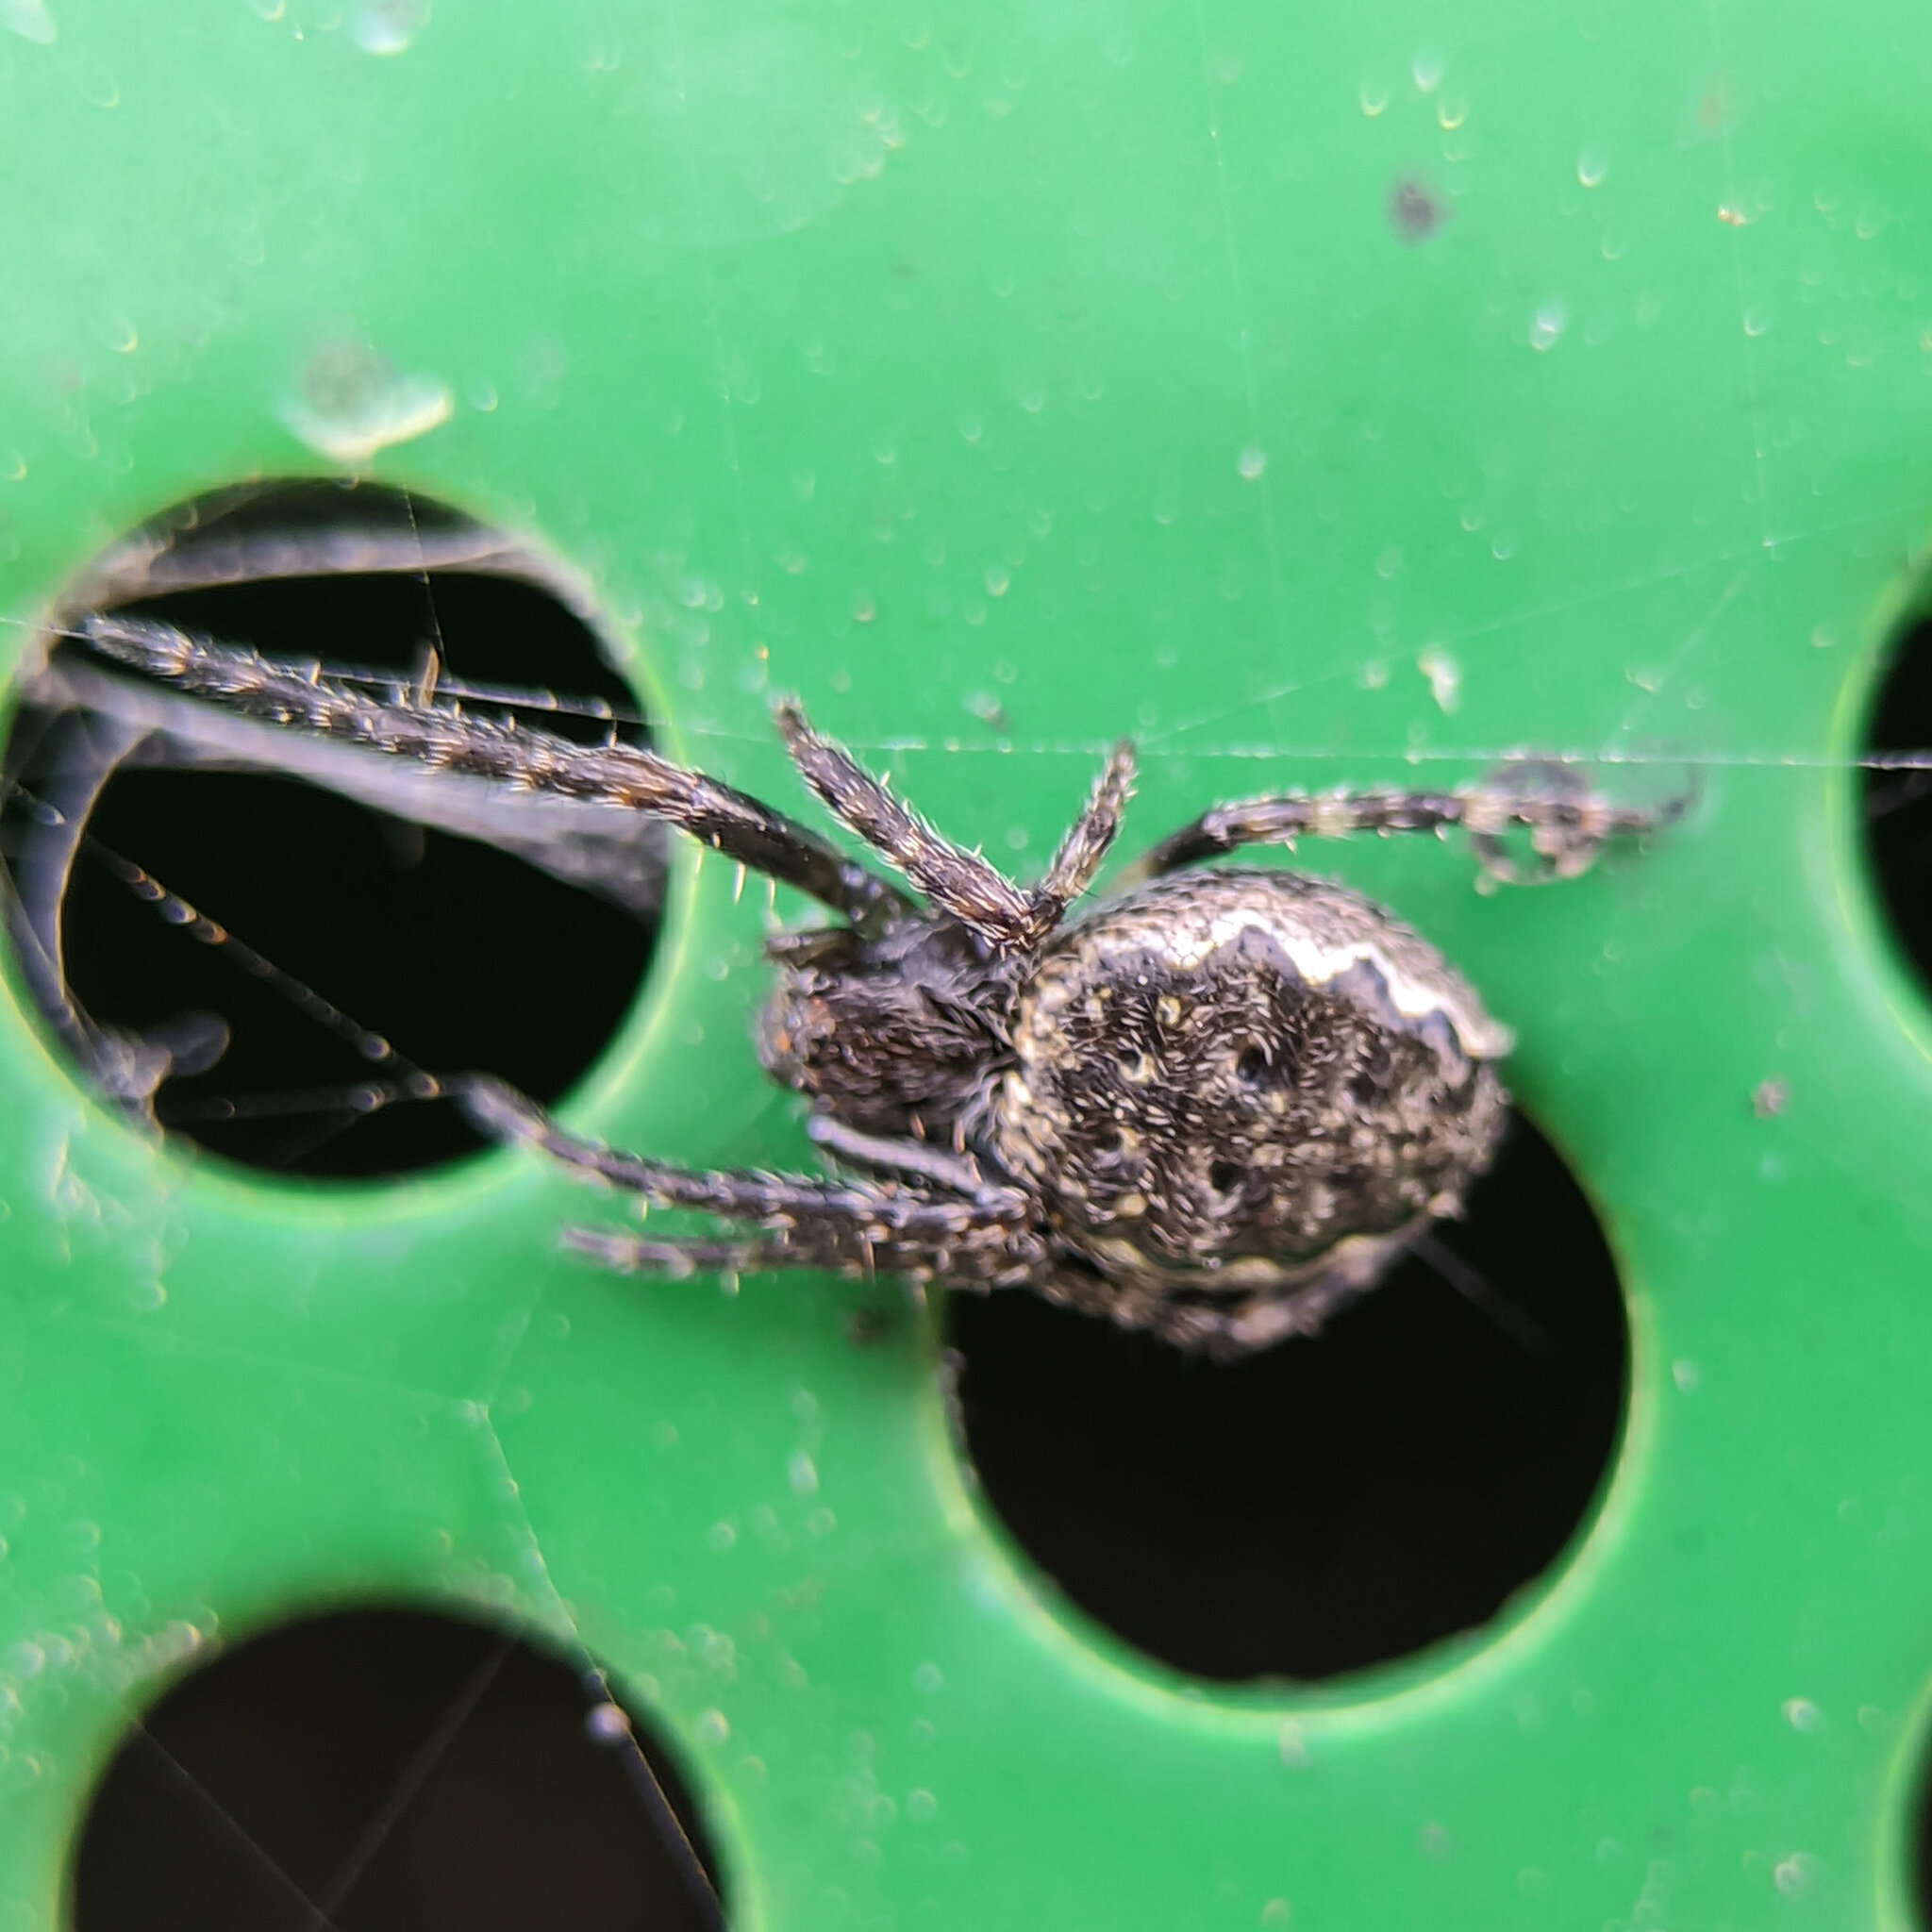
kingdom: Animalia
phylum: Arthropoda
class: Arachnida
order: Araneae
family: Araneidae
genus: Nuctenea
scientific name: Nuctenea umbratica
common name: Toad spider
